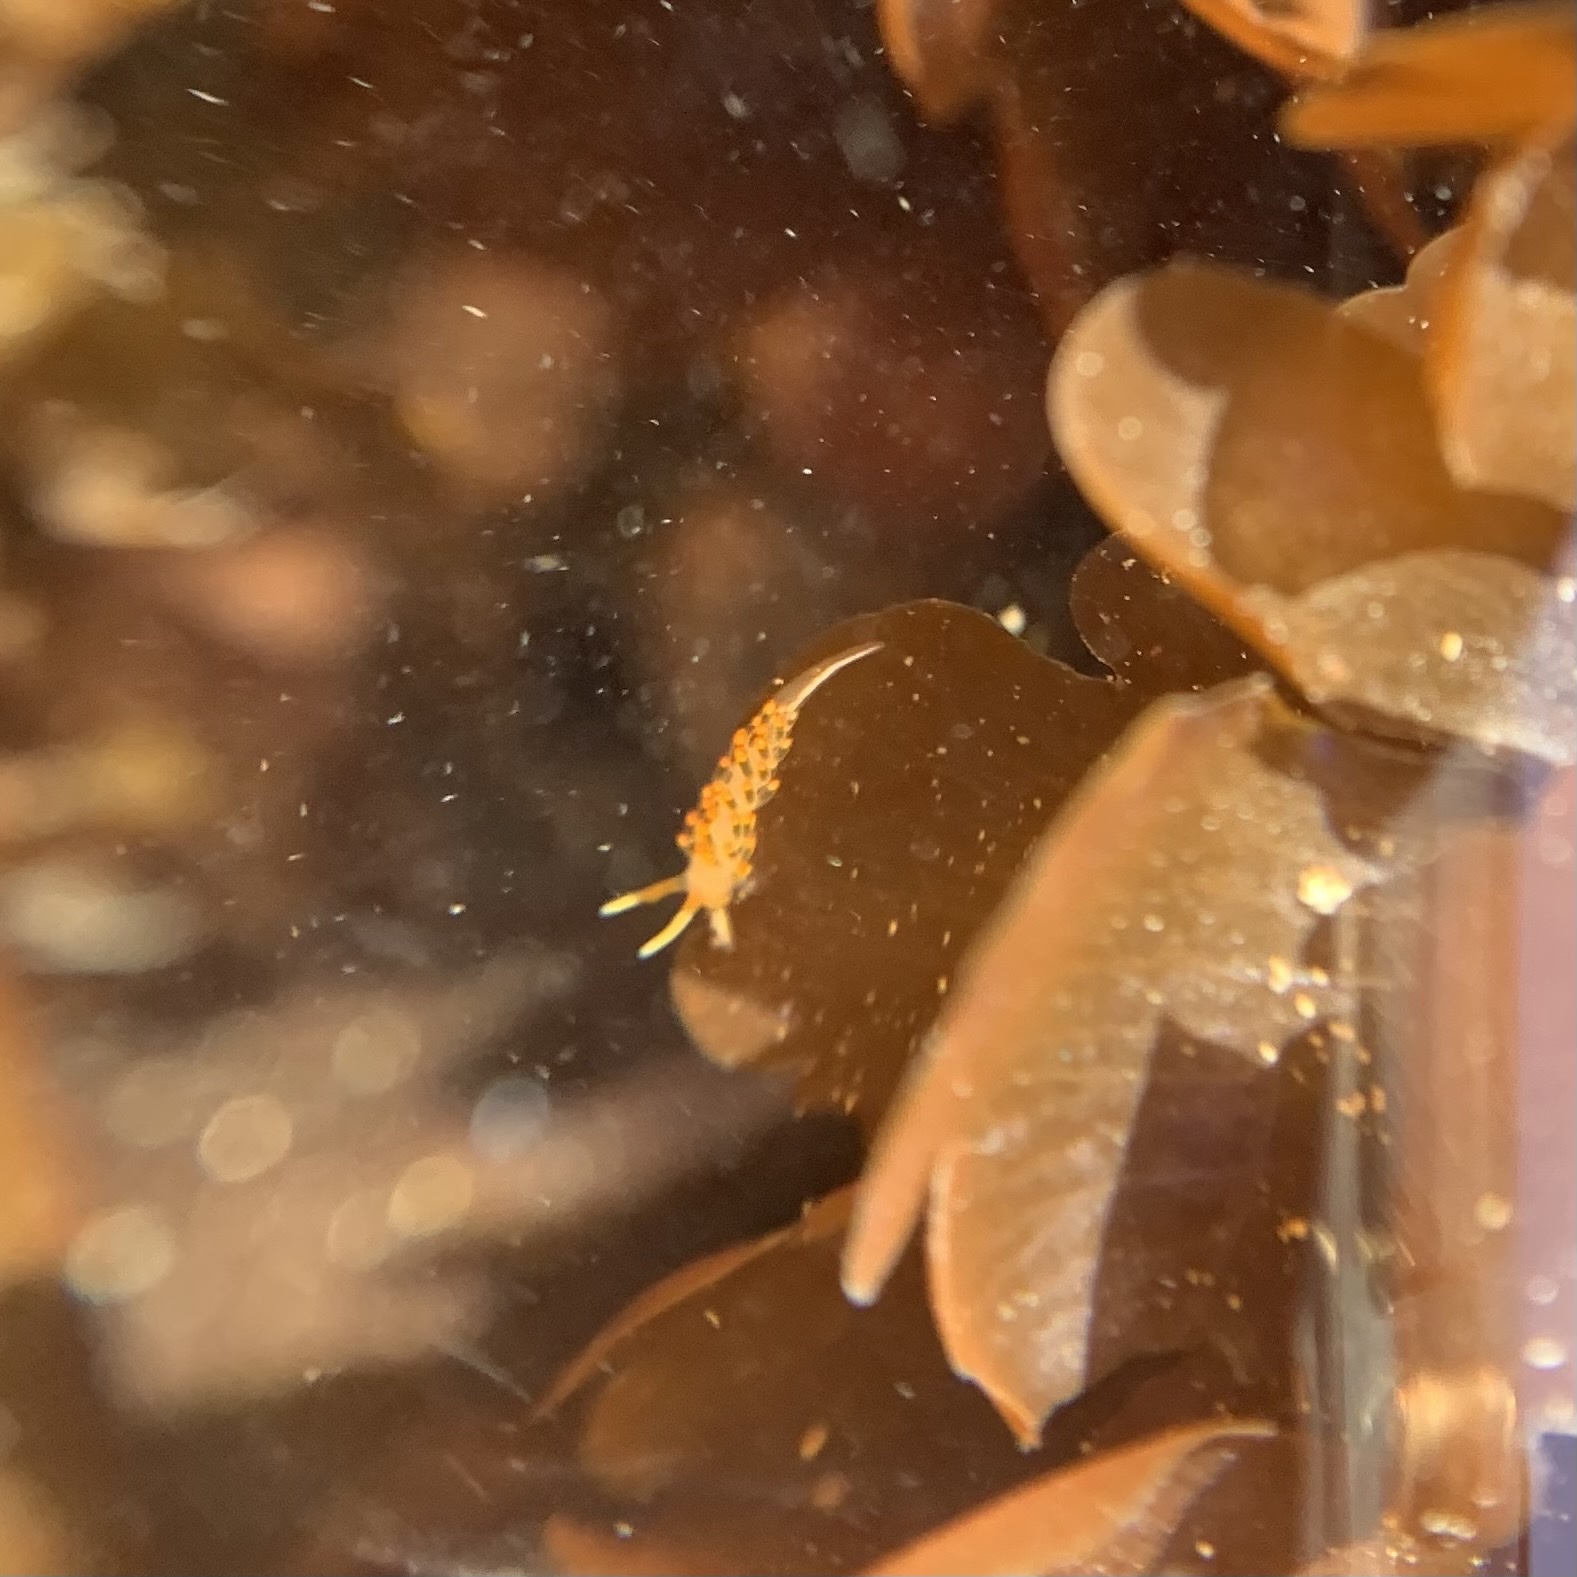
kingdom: Animalia
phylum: Mollusca
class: Gastropoda
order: Nudibranchia
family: Trinchesiidae
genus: Diaphoreolis
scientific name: Diaphoreolis flavovulta
